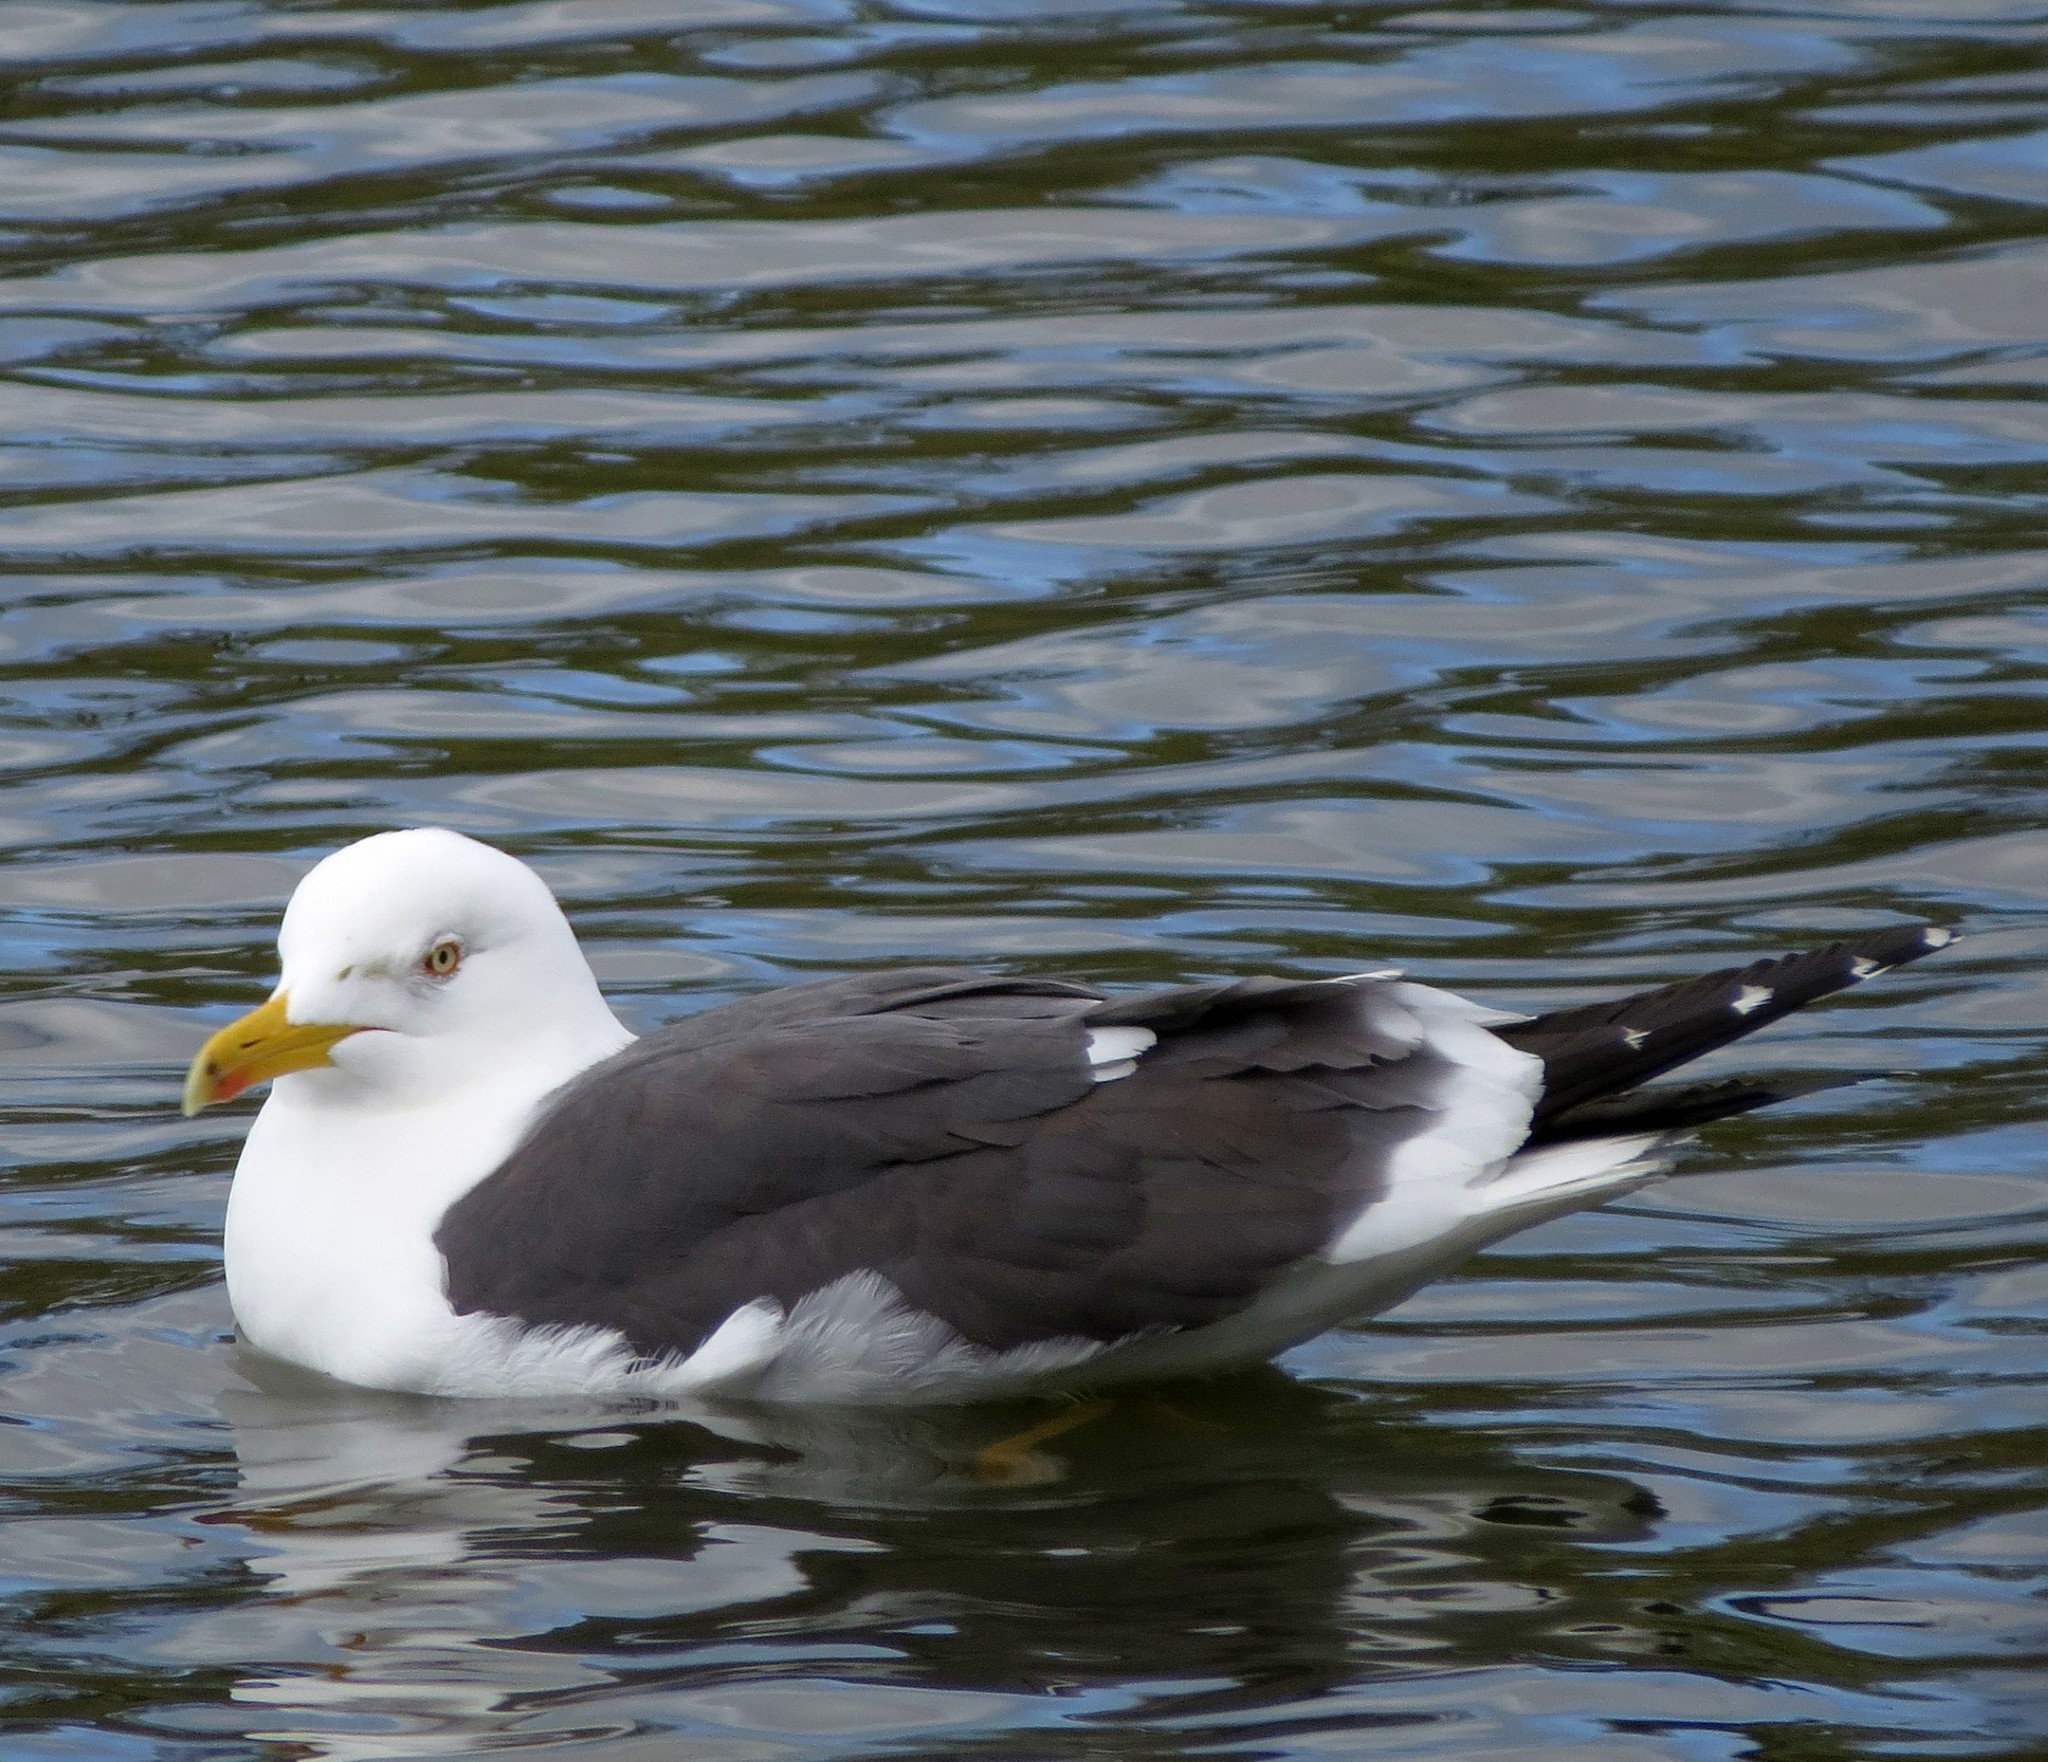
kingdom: Animalia
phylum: Chordata
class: Aves
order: Charadriiformes
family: Laridae
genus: Larus
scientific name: Larus fuscus
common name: Lesser black-backed gull
